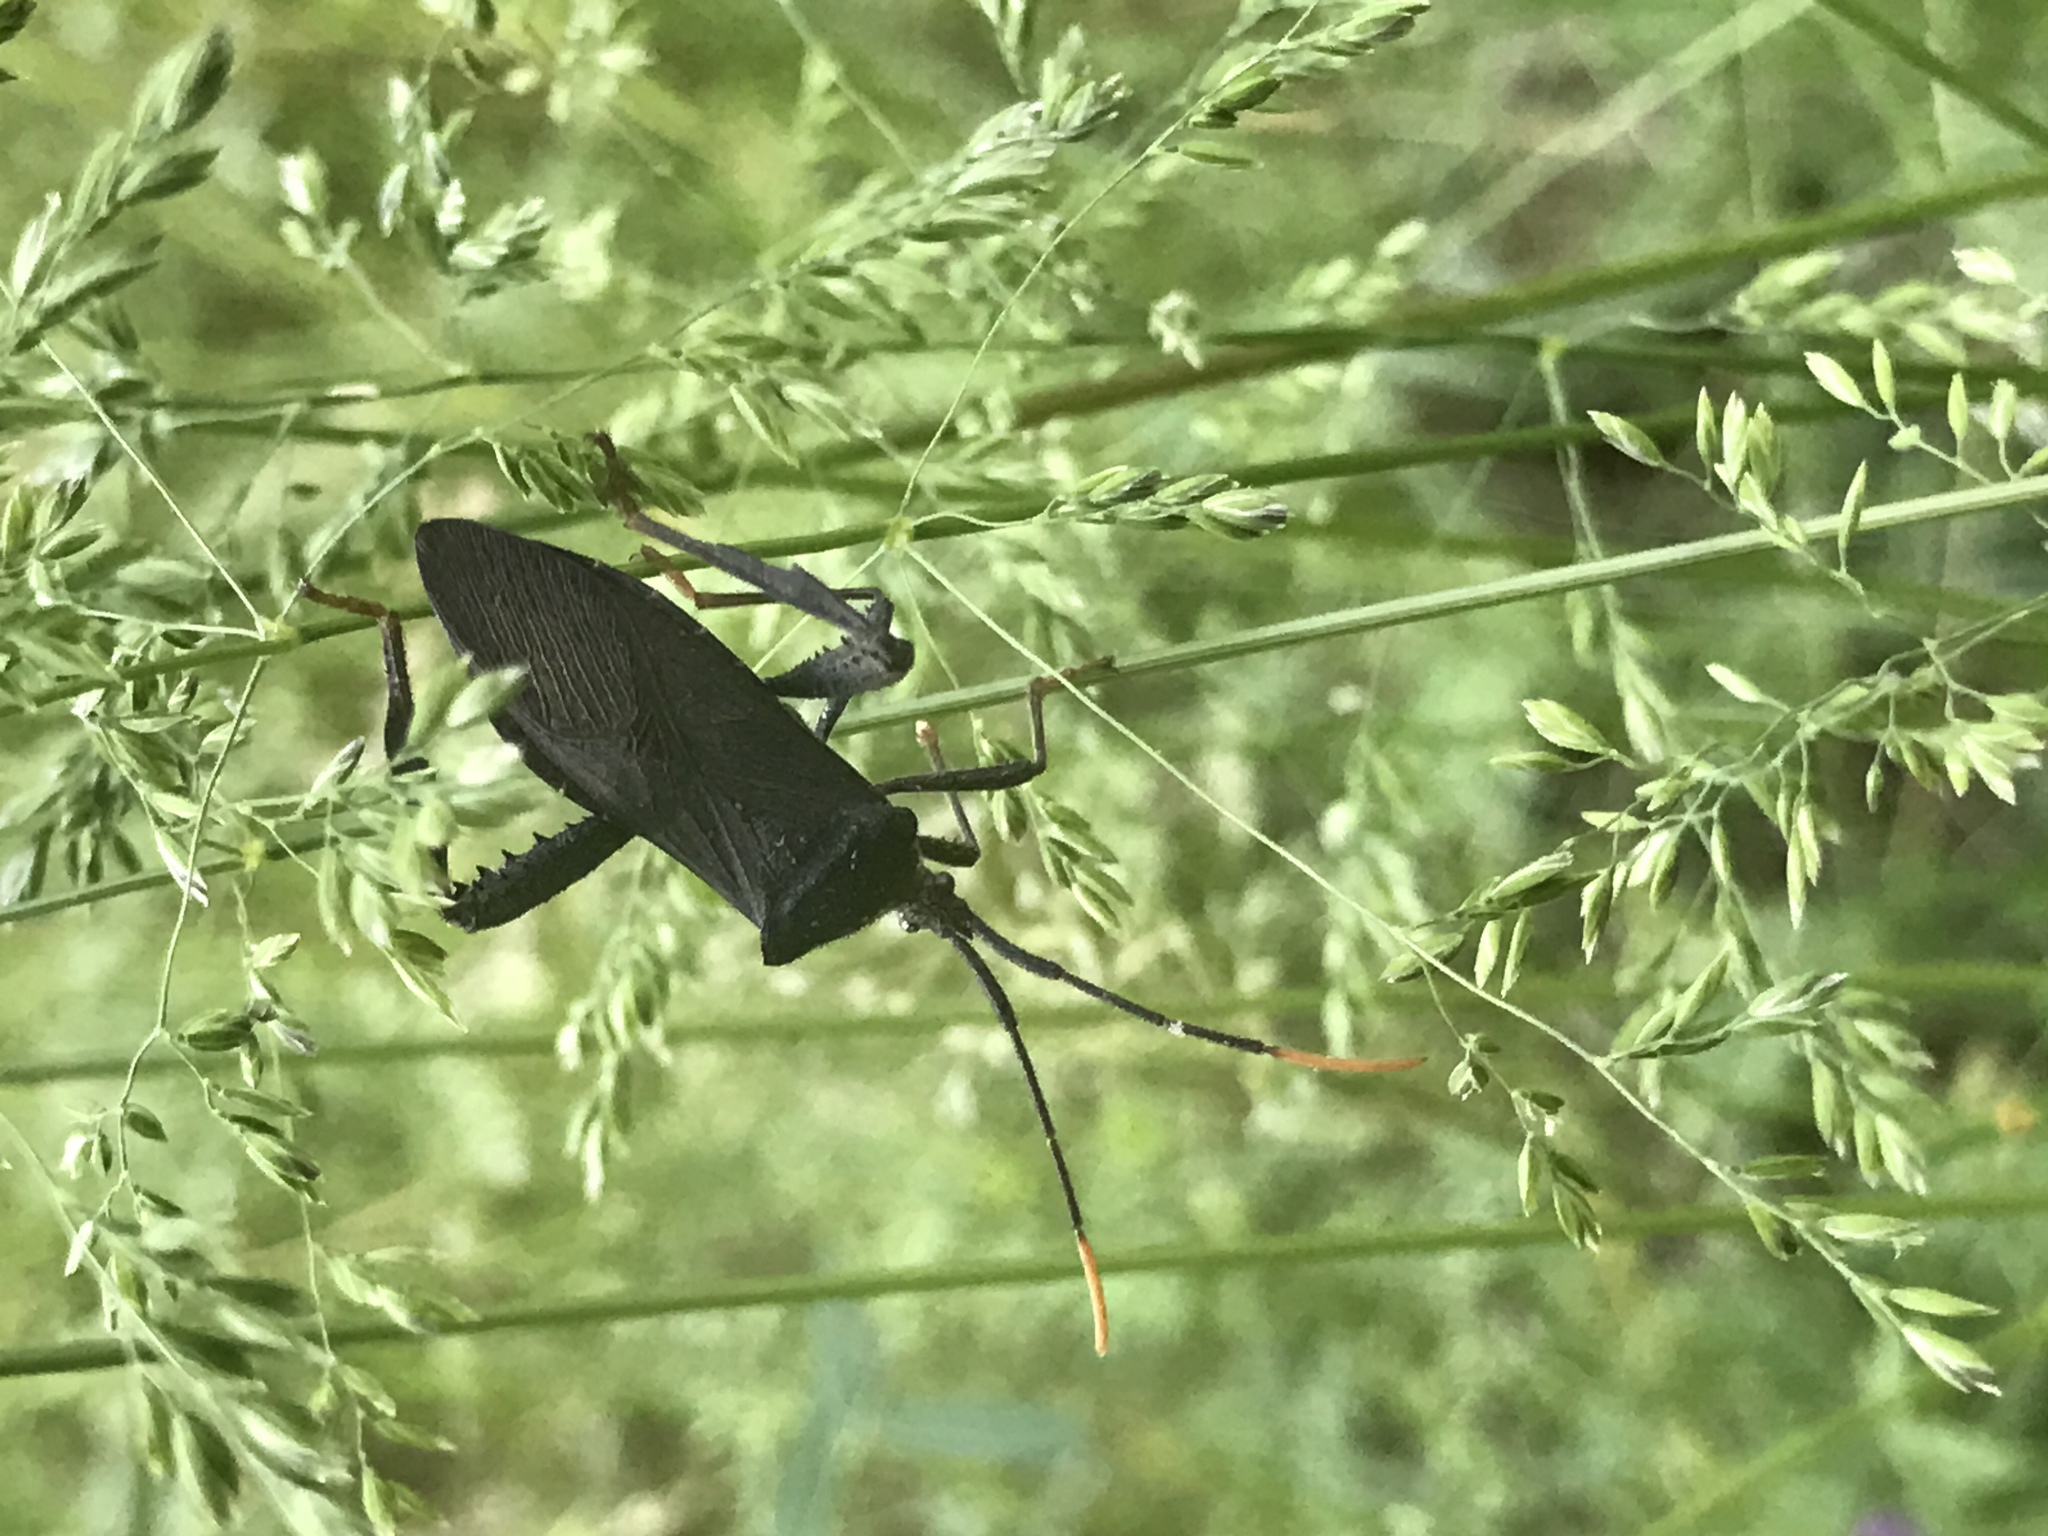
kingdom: Animalia
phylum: Arthropoda
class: Insecta
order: Hemiptera
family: Coreidae
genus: Acanthocephala
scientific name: Acanthocephala terminalis
